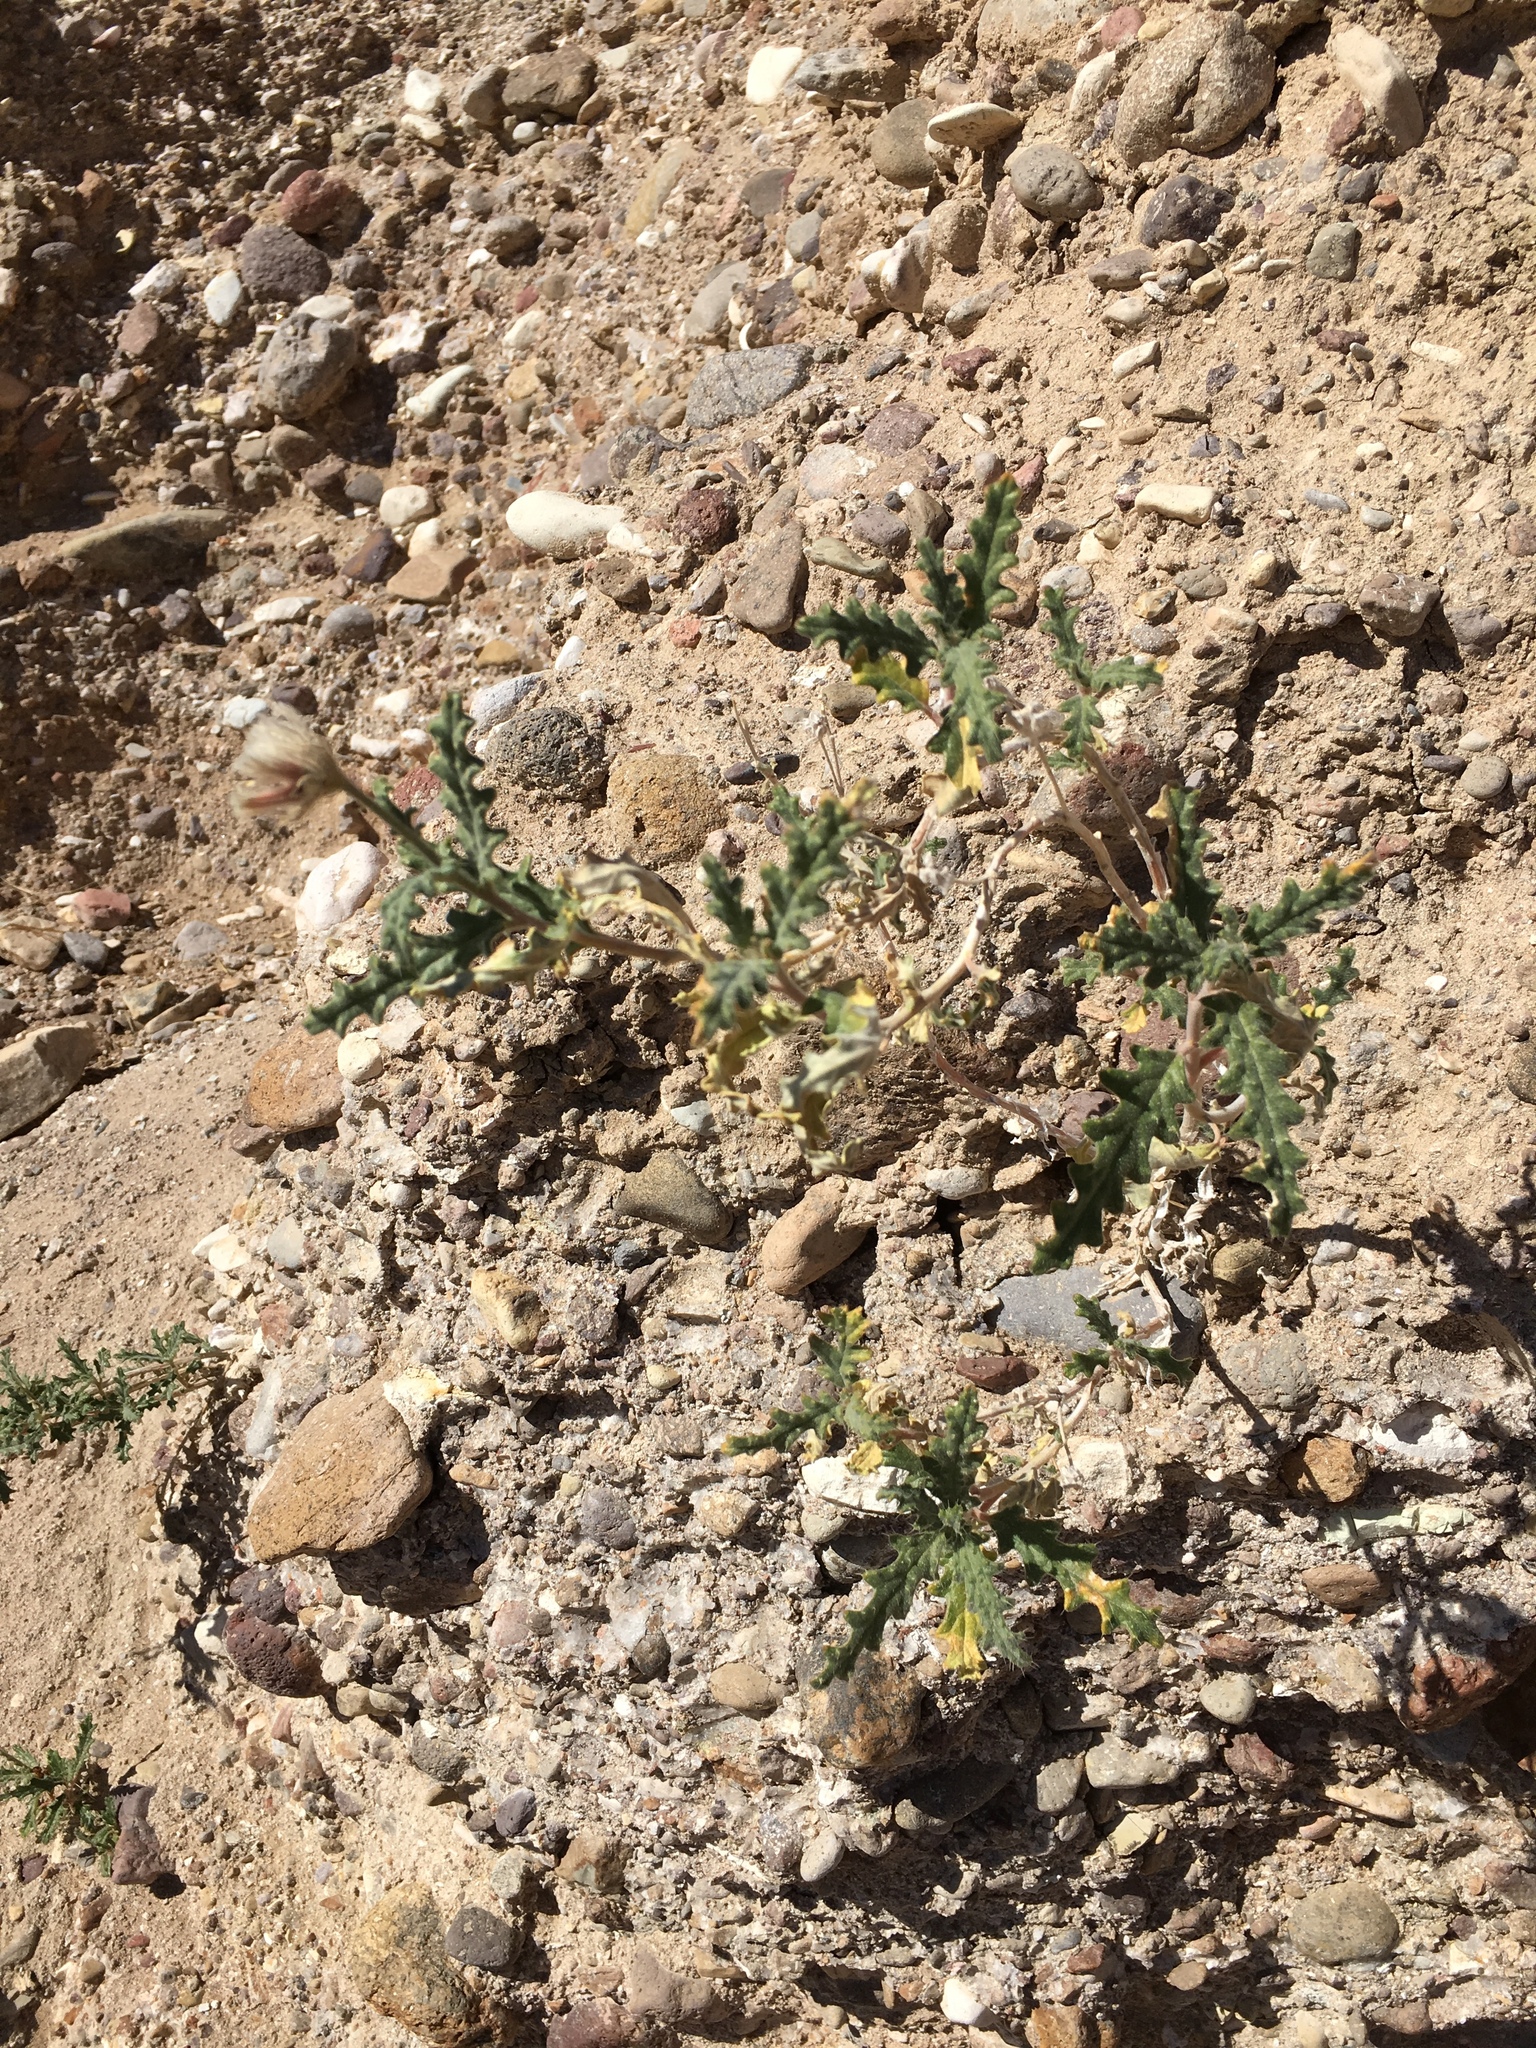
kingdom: Plantae
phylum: Tracheophyta
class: Magnoliopsida
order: Cornales
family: Loasaceae
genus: Cevallia
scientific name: Cevallia sinuata
